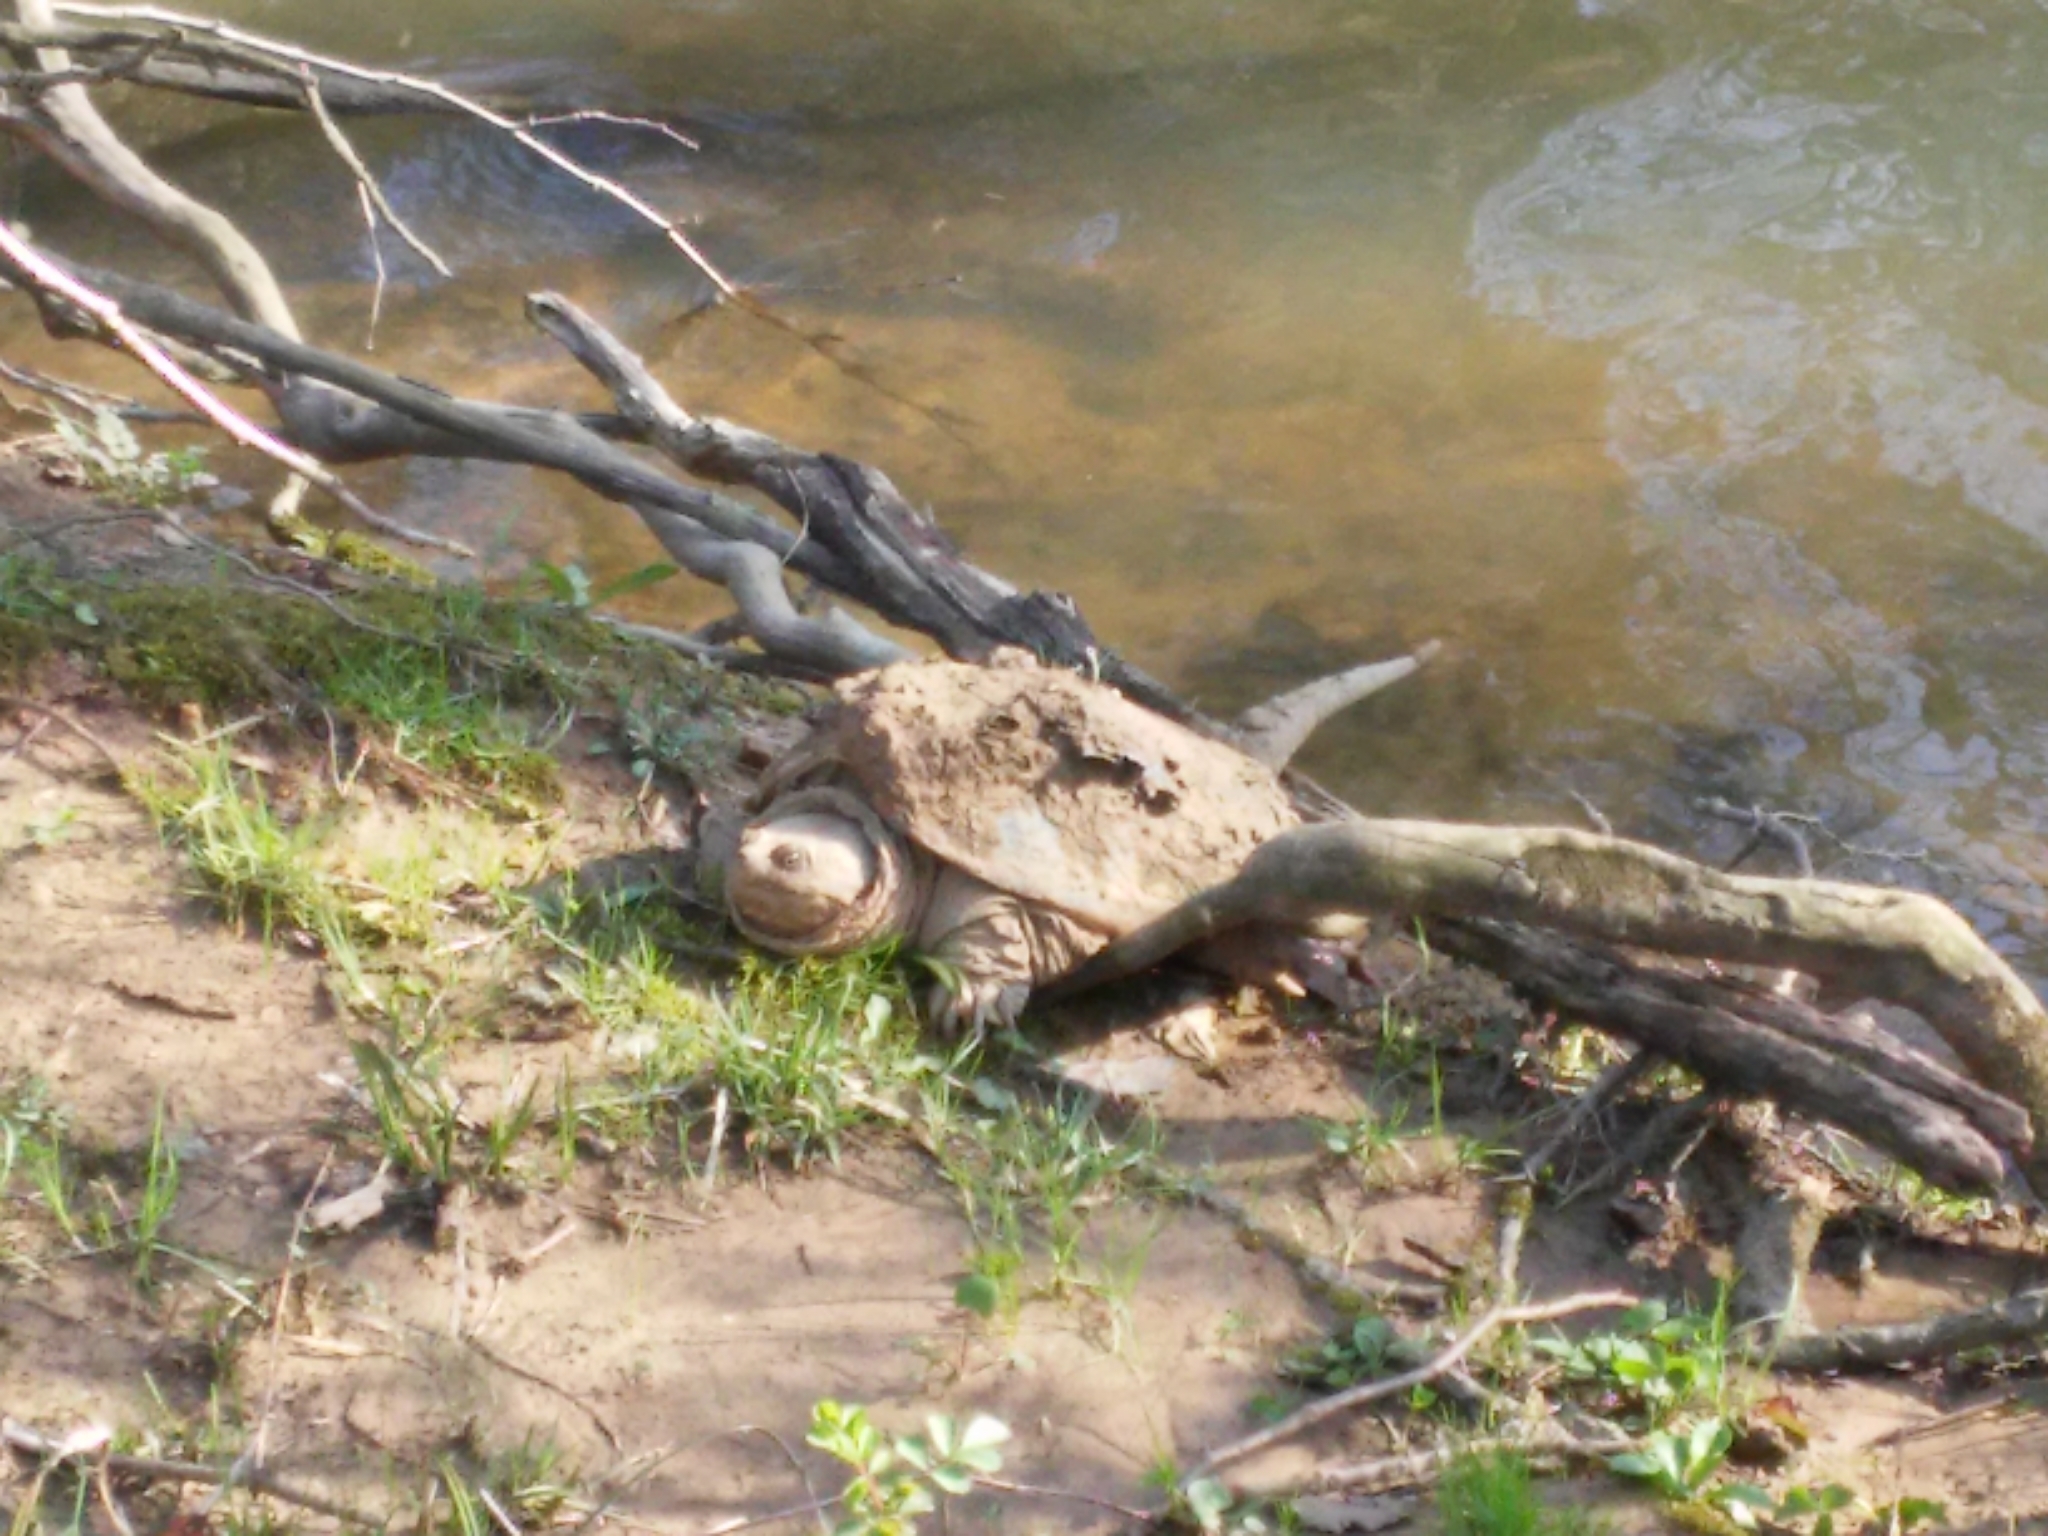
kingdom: Animalia
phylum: Chordata
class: Testudines
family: Chelydridae
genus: Chelydra
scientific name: Chelydra serpentina
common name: Common snapping turtle
